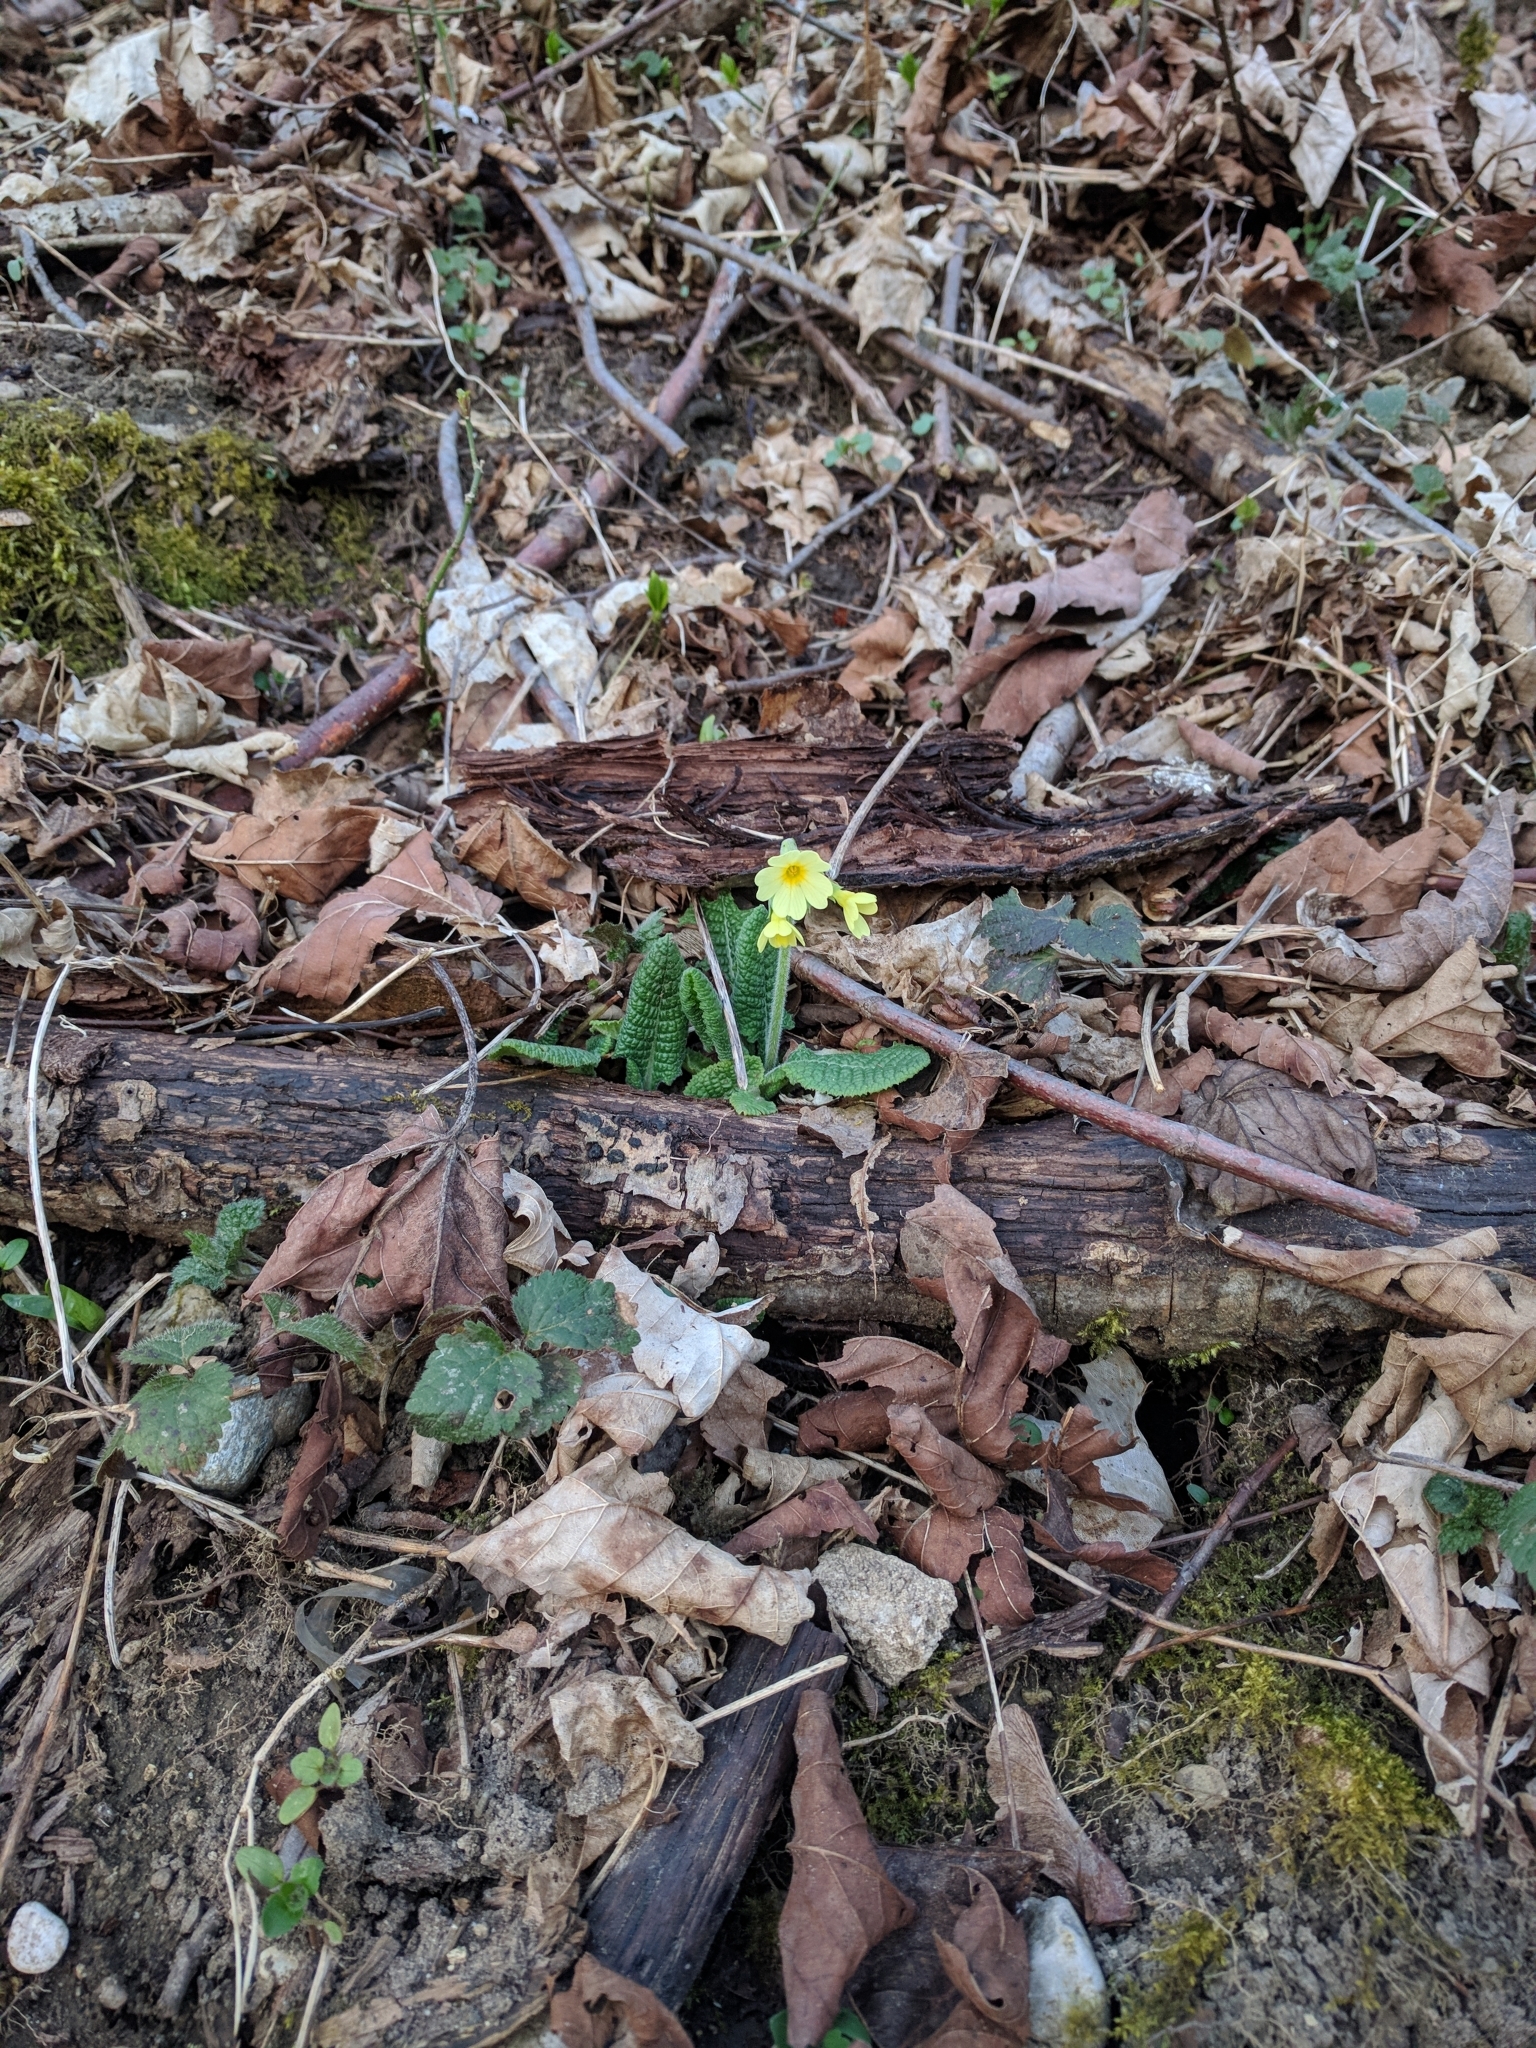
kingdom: Plantae
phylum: Tracheophyta
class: Magnoliopsida
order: Ericales
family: Primulaceae
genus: Primula
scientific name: Primula elatior
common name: Oxlip
